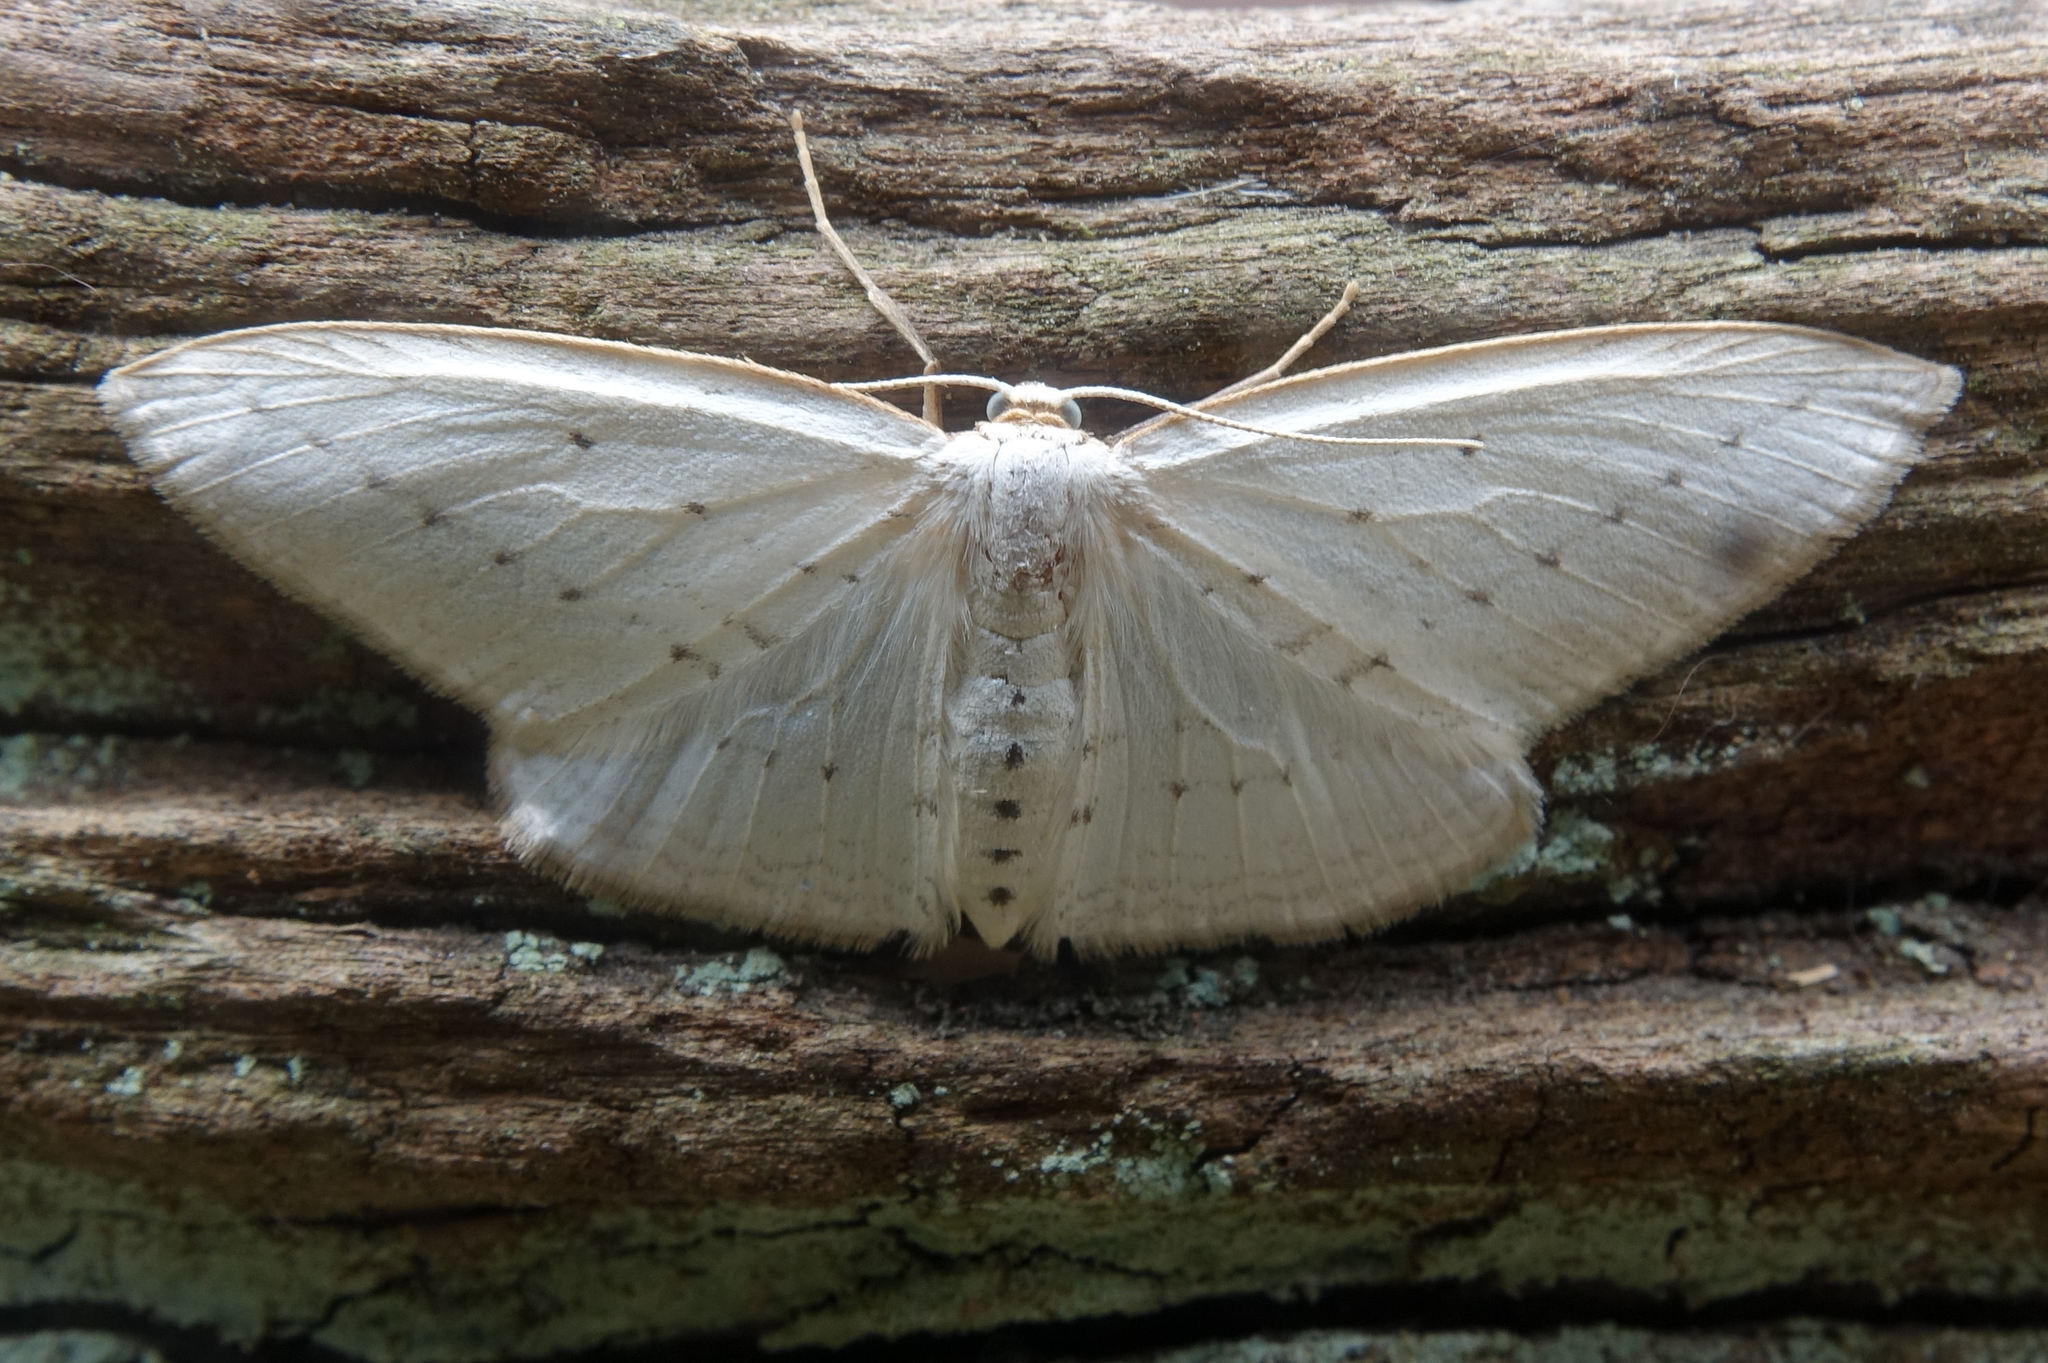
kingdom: Animalia
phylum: Arthropoda
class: Insecta
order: Lepidoptera
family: Geometridae
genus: Orthoclydon
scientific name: Orthoclydon praefectata
